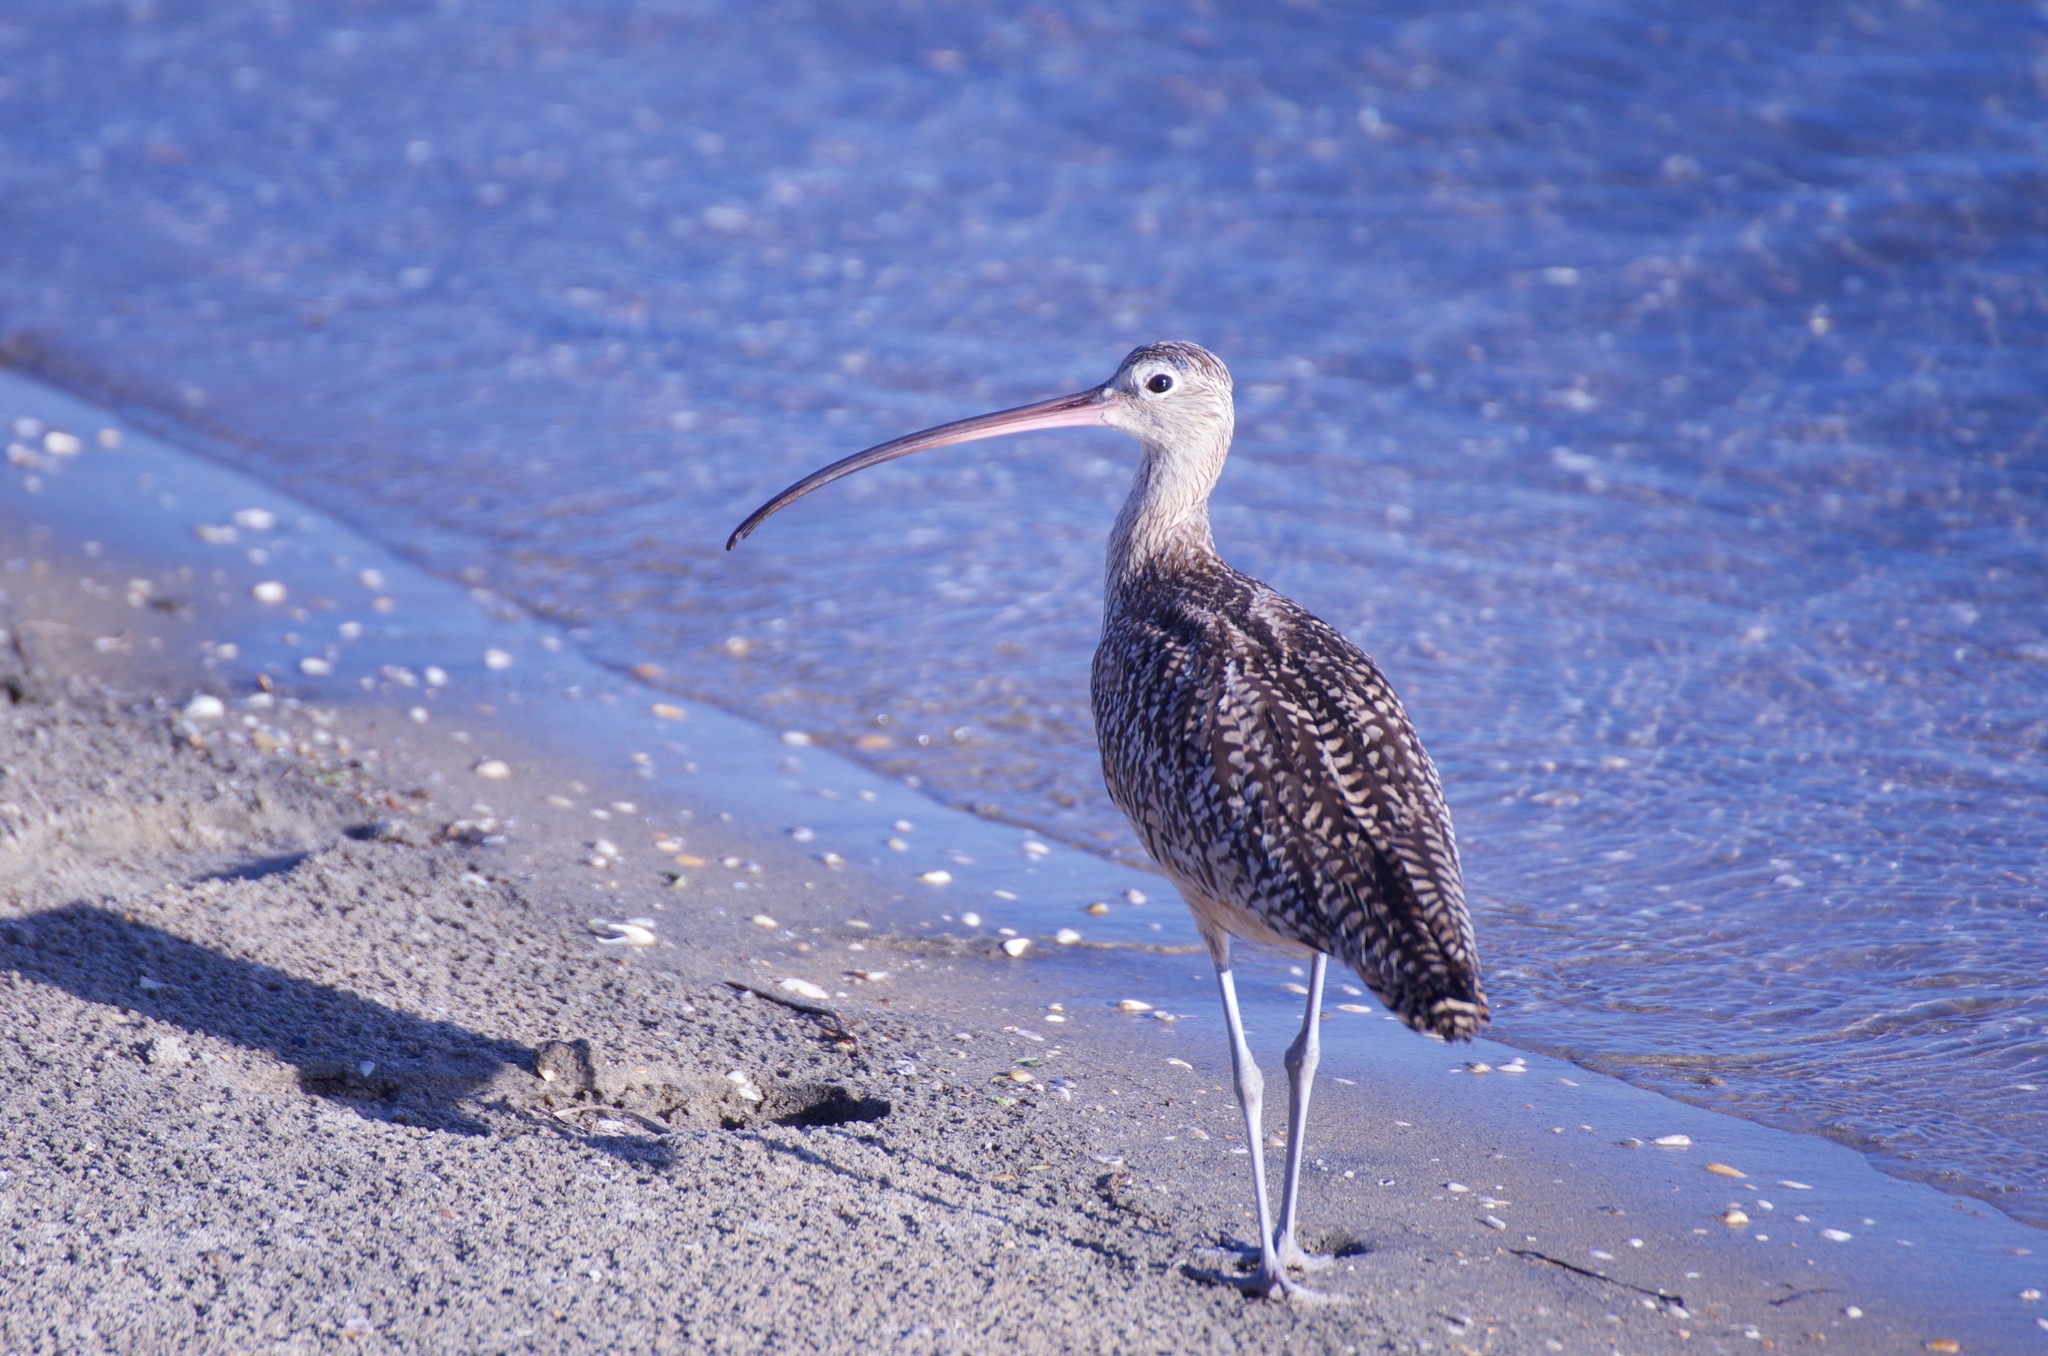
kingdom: Animalia
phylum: Chordata
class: Aves
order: Charadriiformes
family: Scolopacidae
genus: Numenius
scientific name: Numenius americanus
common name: Long-billed curlew
